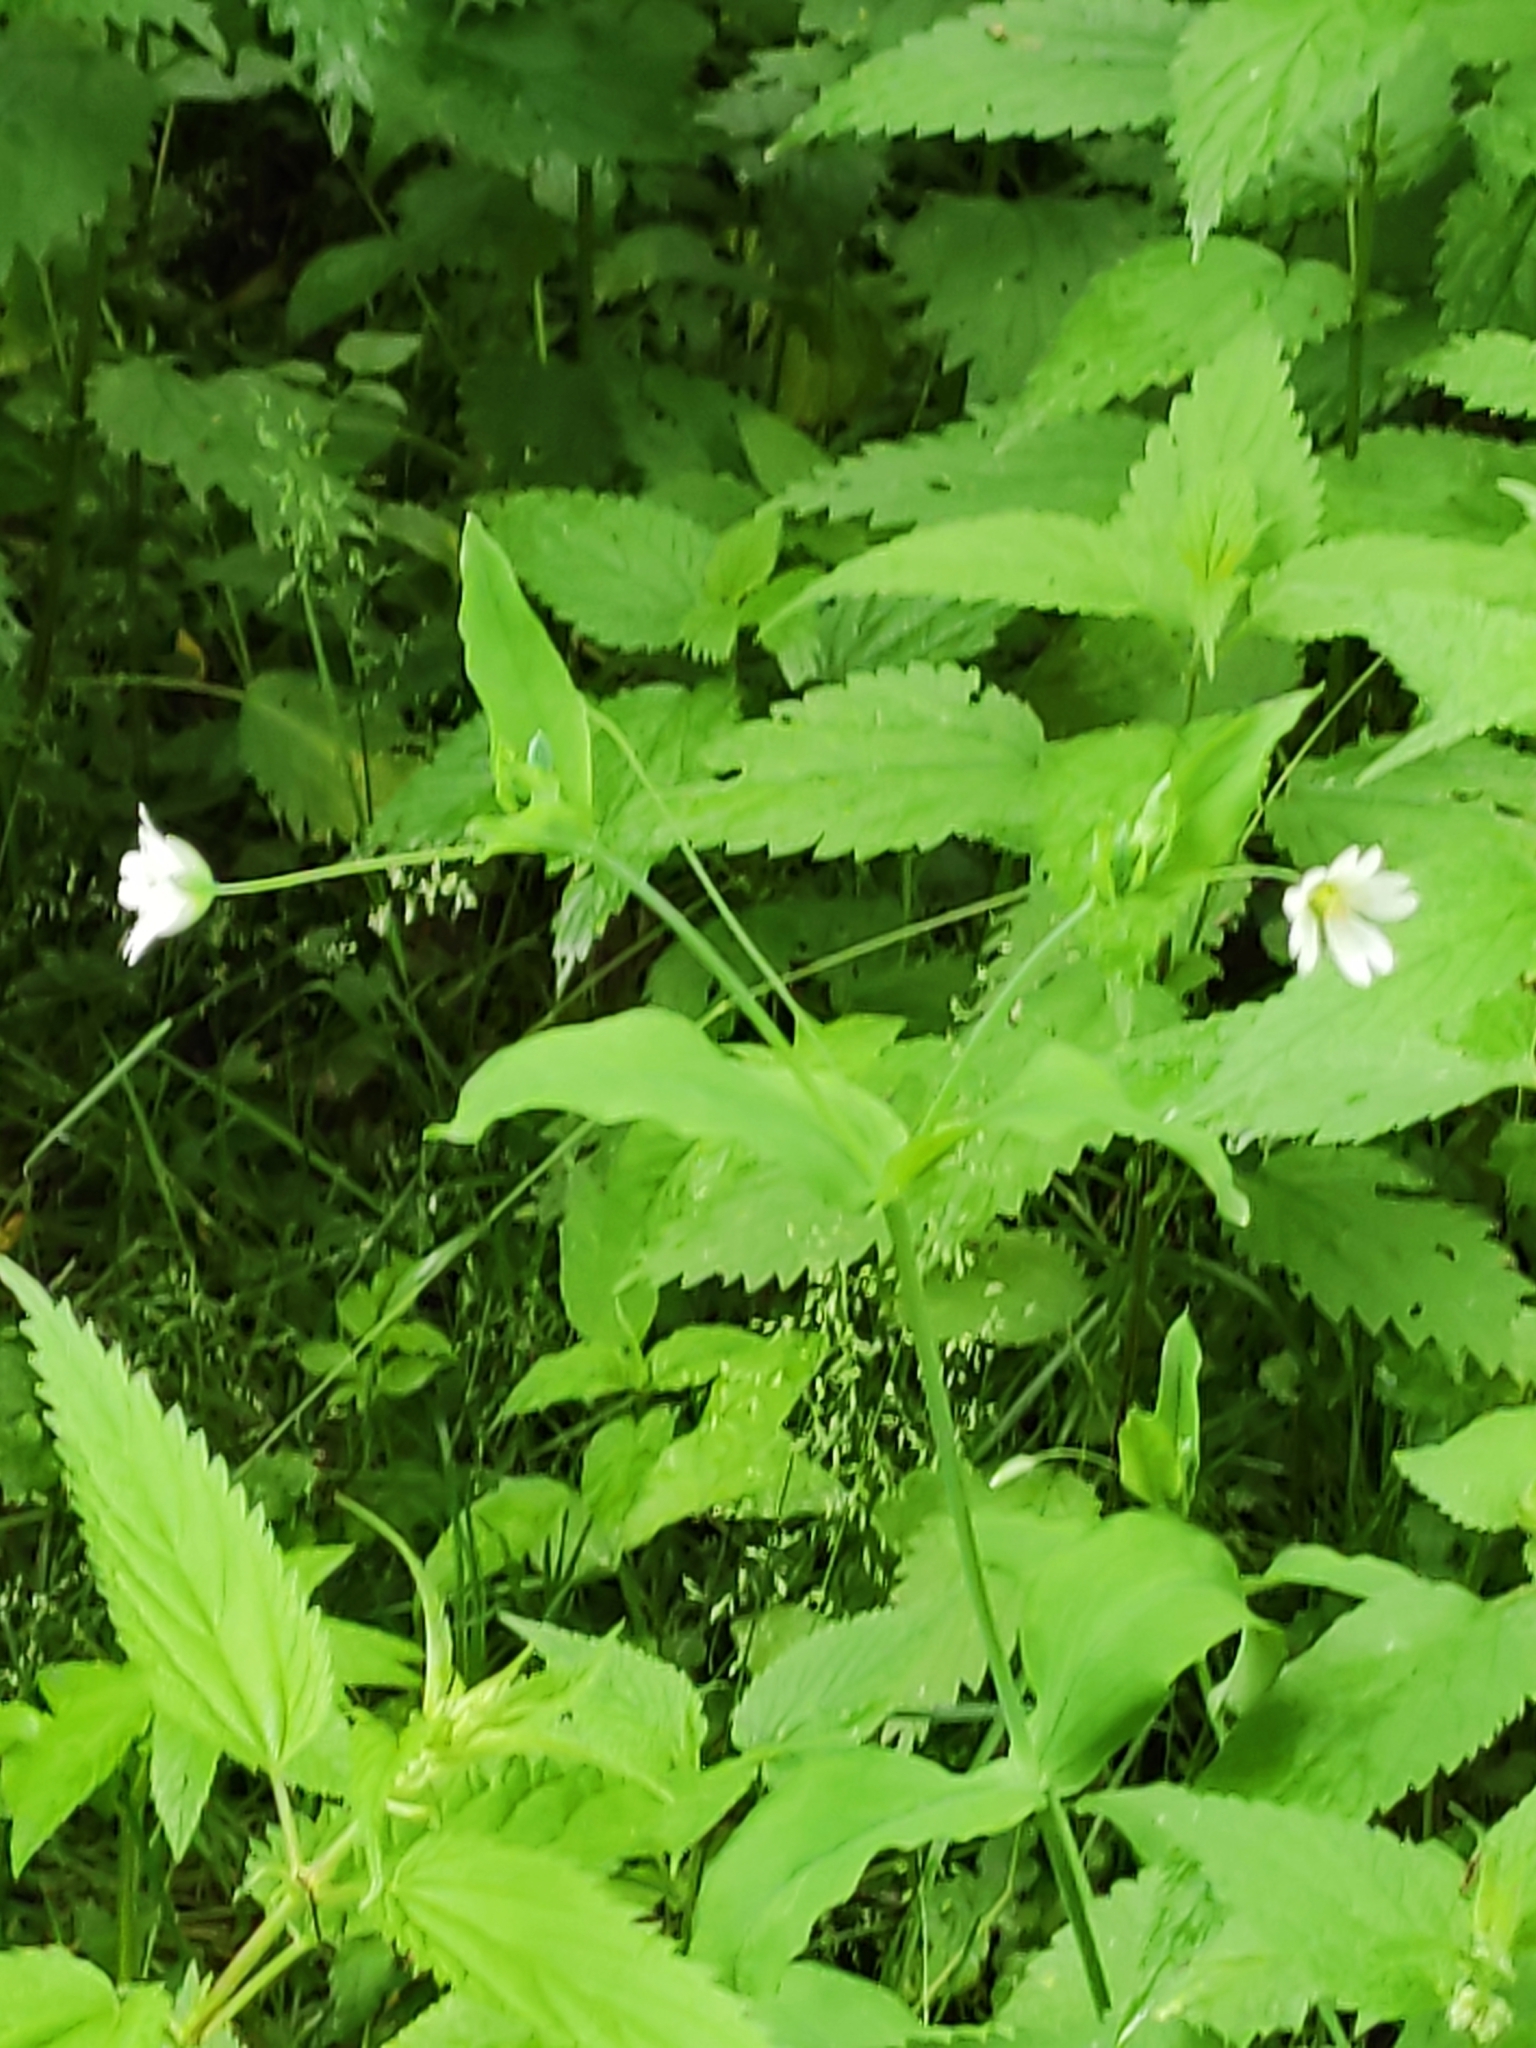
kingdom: Plantae
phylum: Tracheophyta
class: Magnoliopsida
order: Caryophyllales
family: Caryophyllaceae
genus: Cerastium
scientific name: Cerastium davuricum
